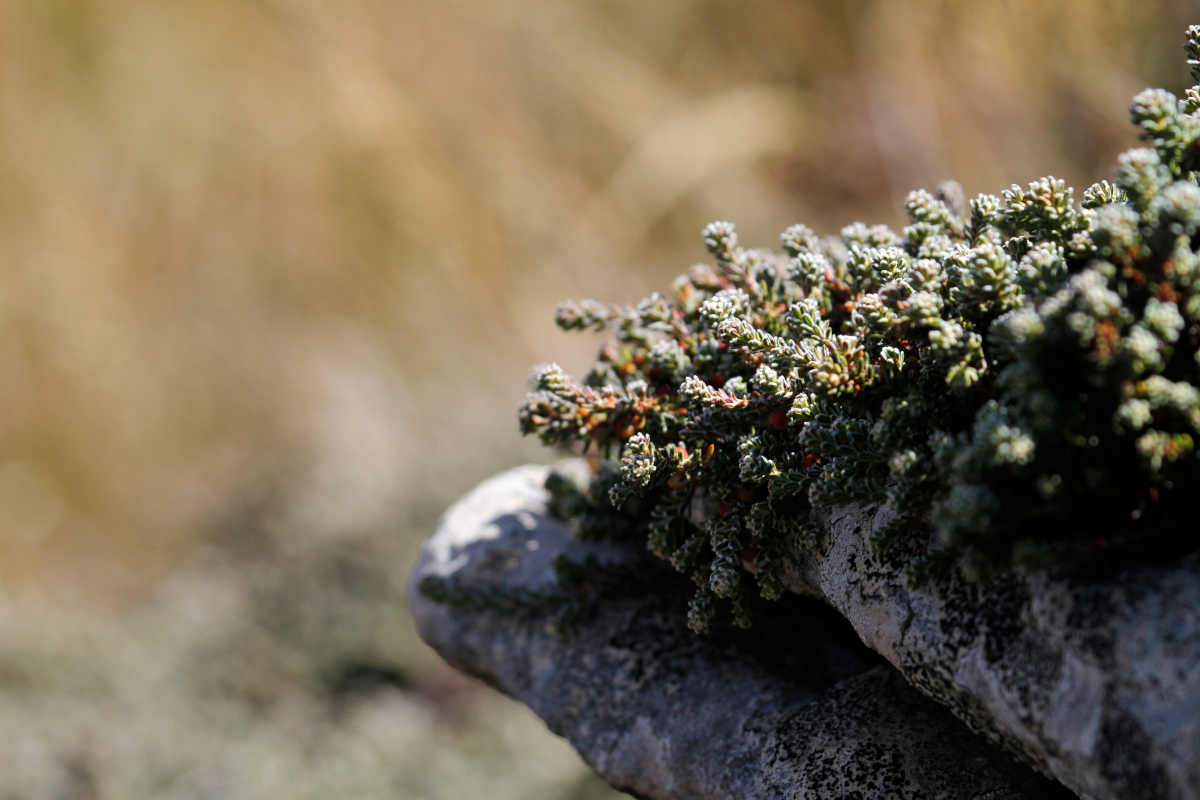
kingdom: Plantae
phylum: Tracheophyta
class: Magnoliopsida
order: Ericales
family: Ericaceae
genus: Empetrum
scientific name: Empetrum rubrum
